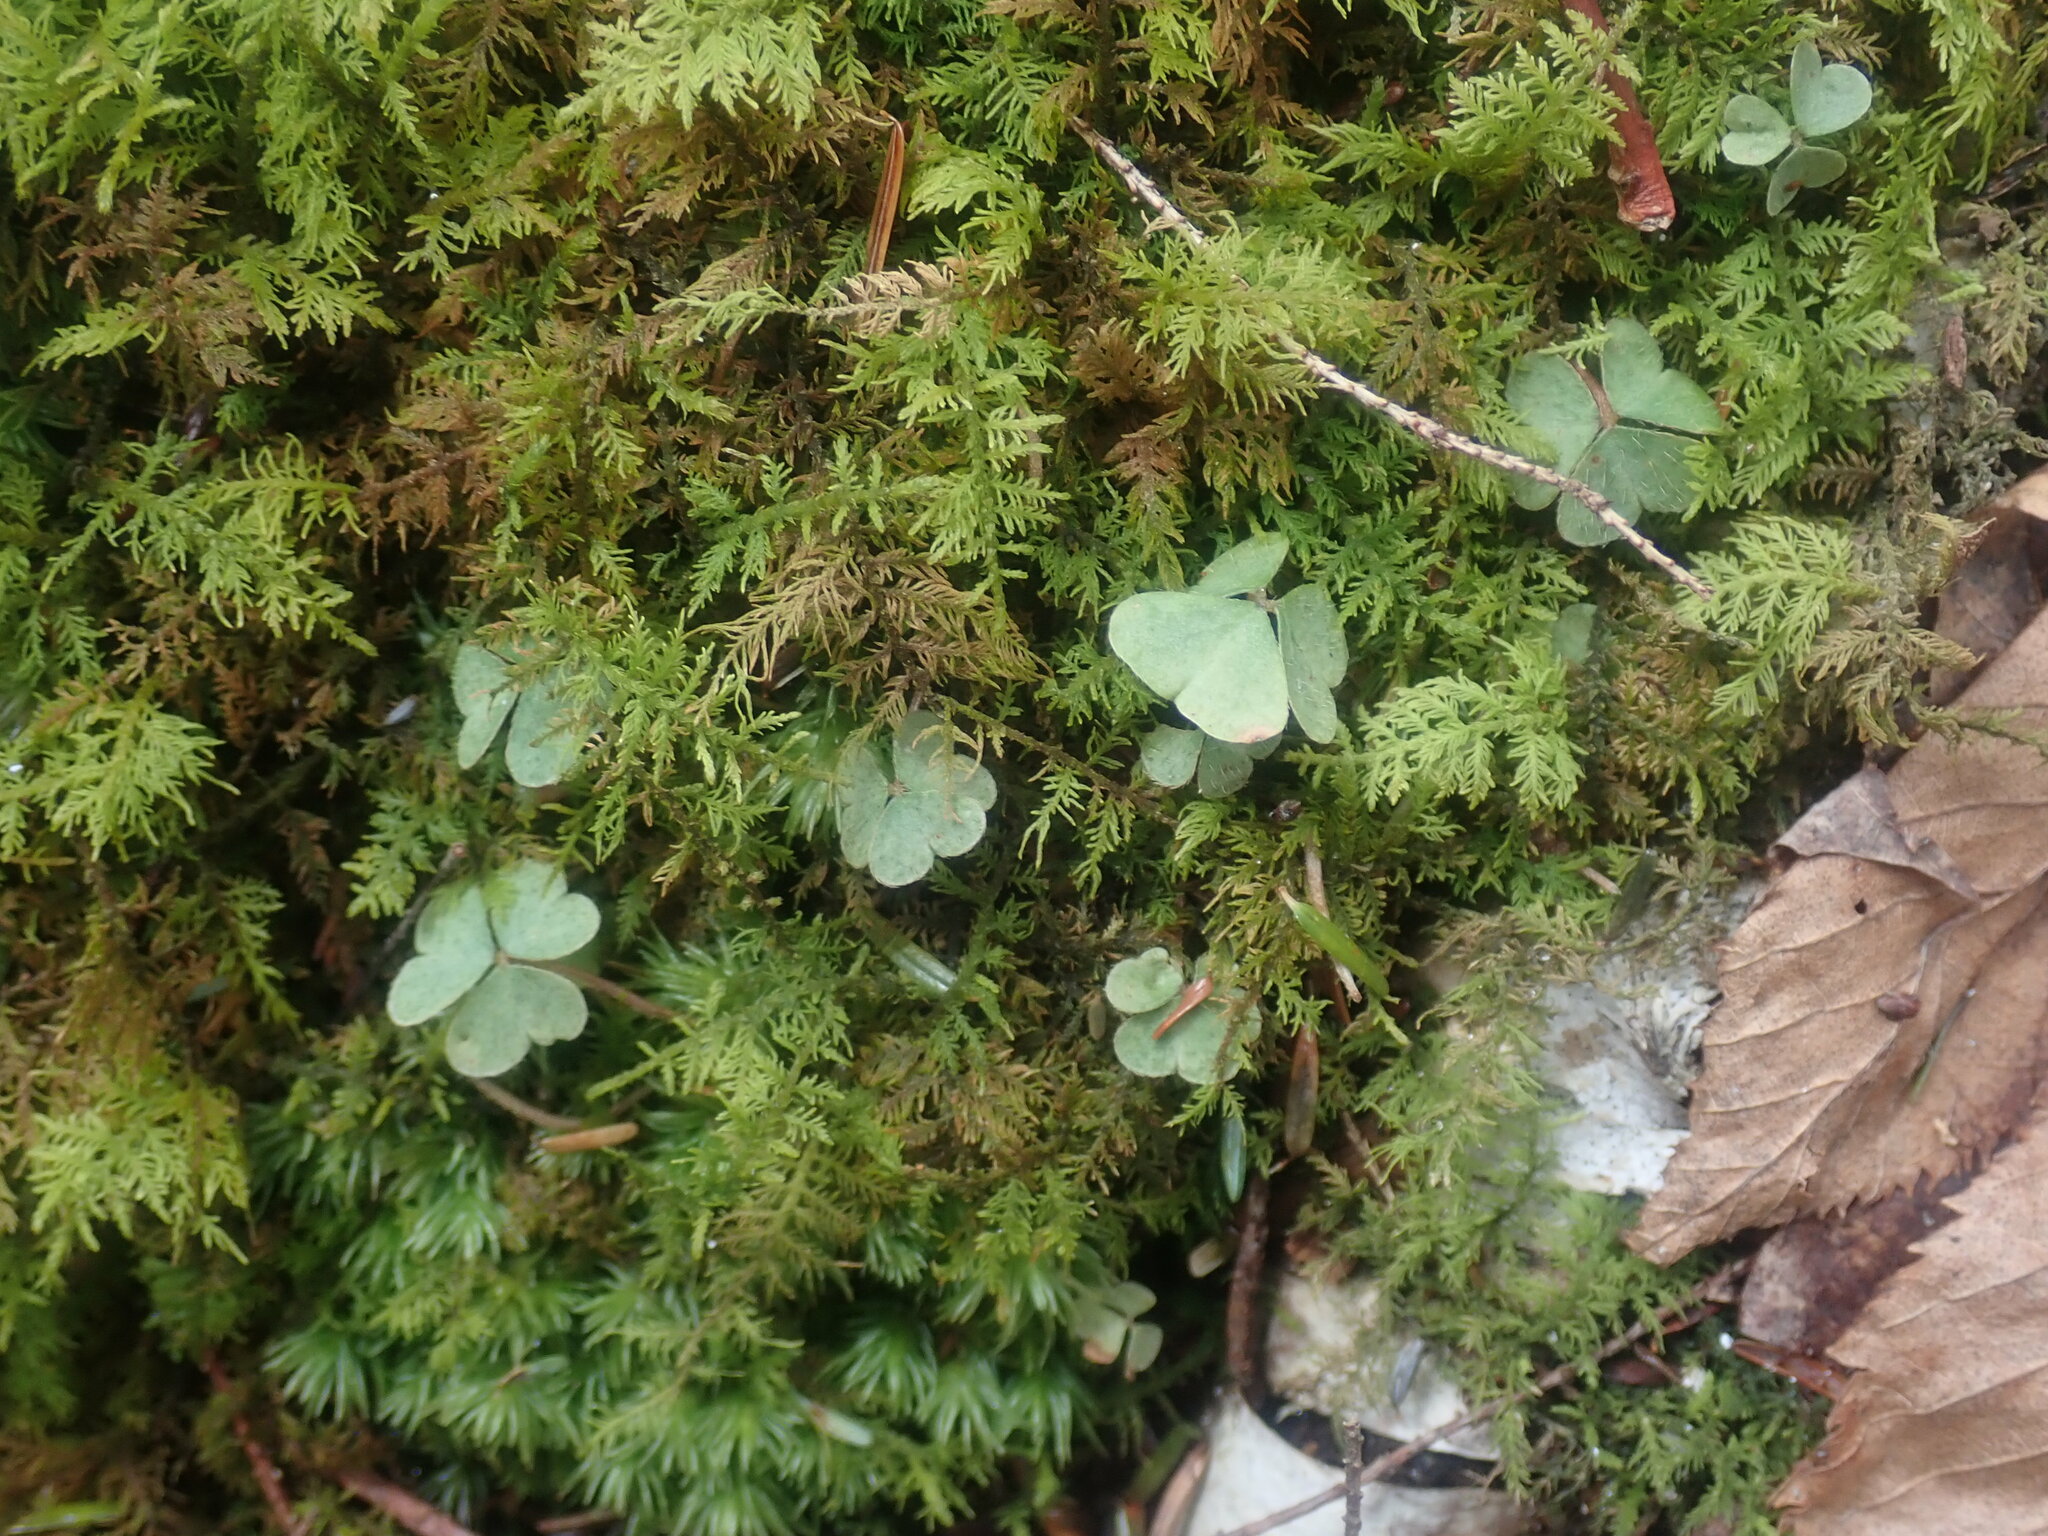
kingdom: Plantae
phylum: Tracheophyta
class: Magnoliopsida
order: Oxalidales
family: Oxalidaceae
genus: Oxalis
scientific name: Oxalis montana
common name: American wood-sorrel
